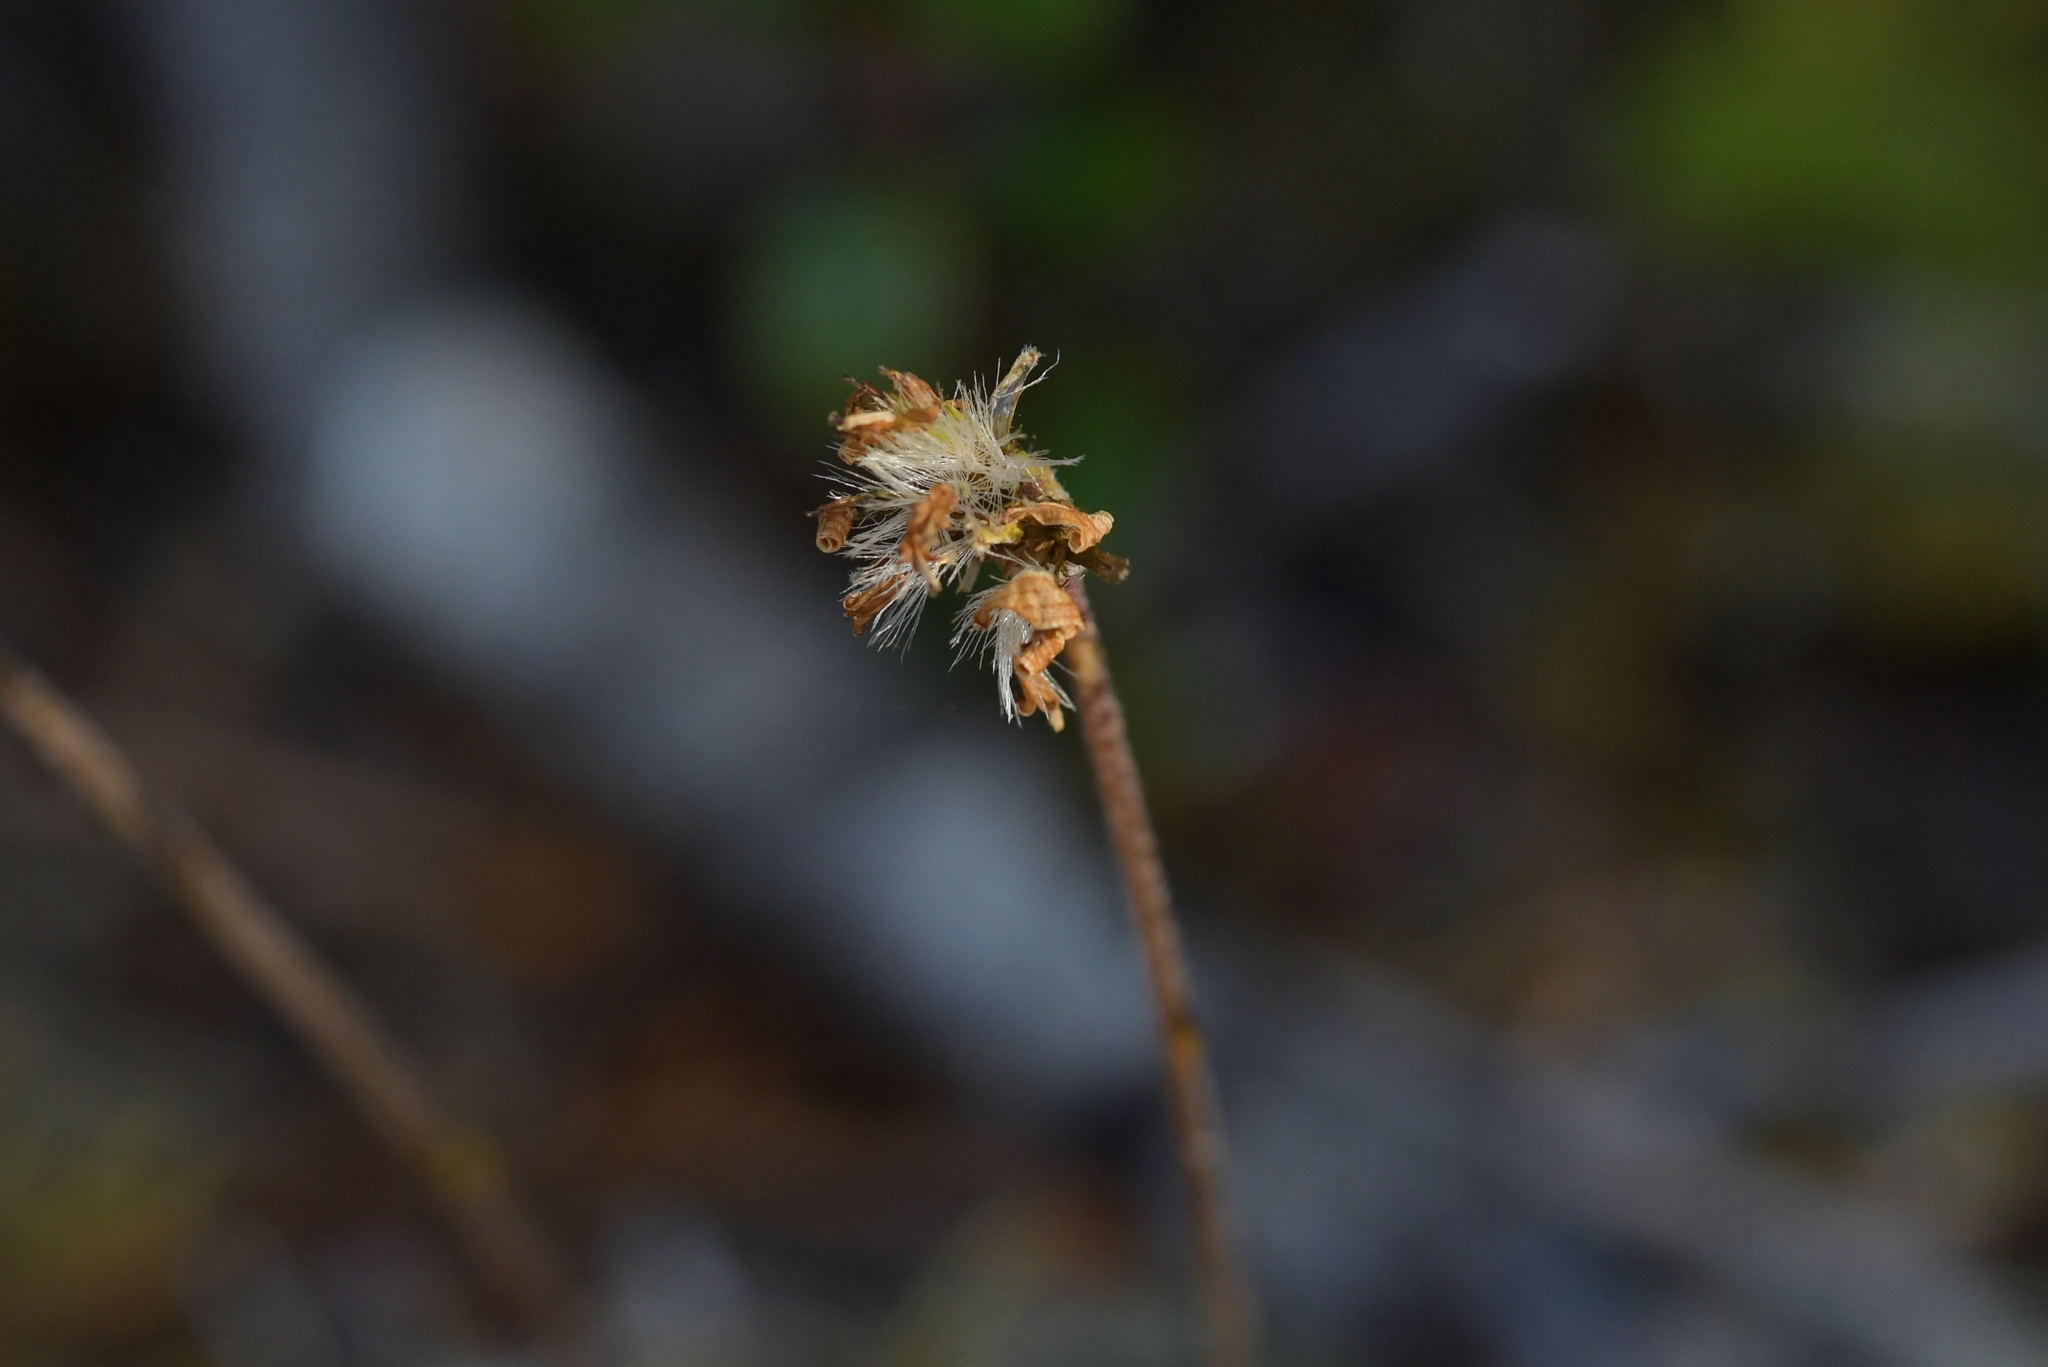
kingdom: Plantae
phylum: Tracheophyta
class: Magnoliopsida
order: Asterales
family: Asteraceae
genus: Brachyglottis
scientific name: Brachyglottis bellidioides
